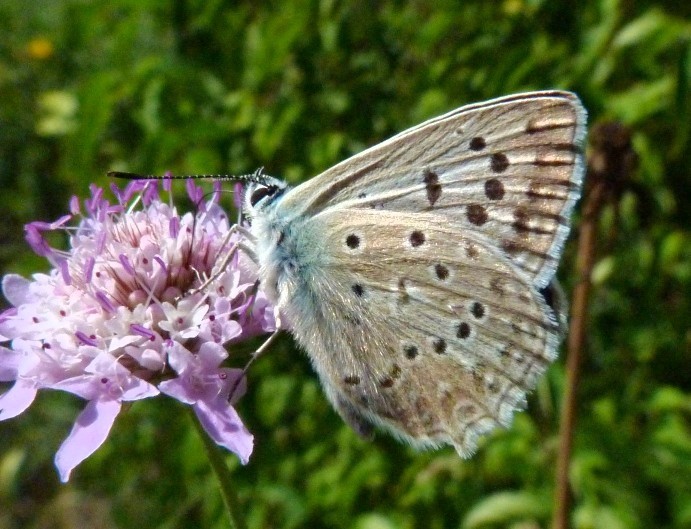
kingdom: Animalia
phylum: Arthropoda
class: Insecta
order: Lepidoptera
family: Lycaenidae
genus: Polyommatus
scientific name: Polyommatus daphnis
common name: Meleager's blue
